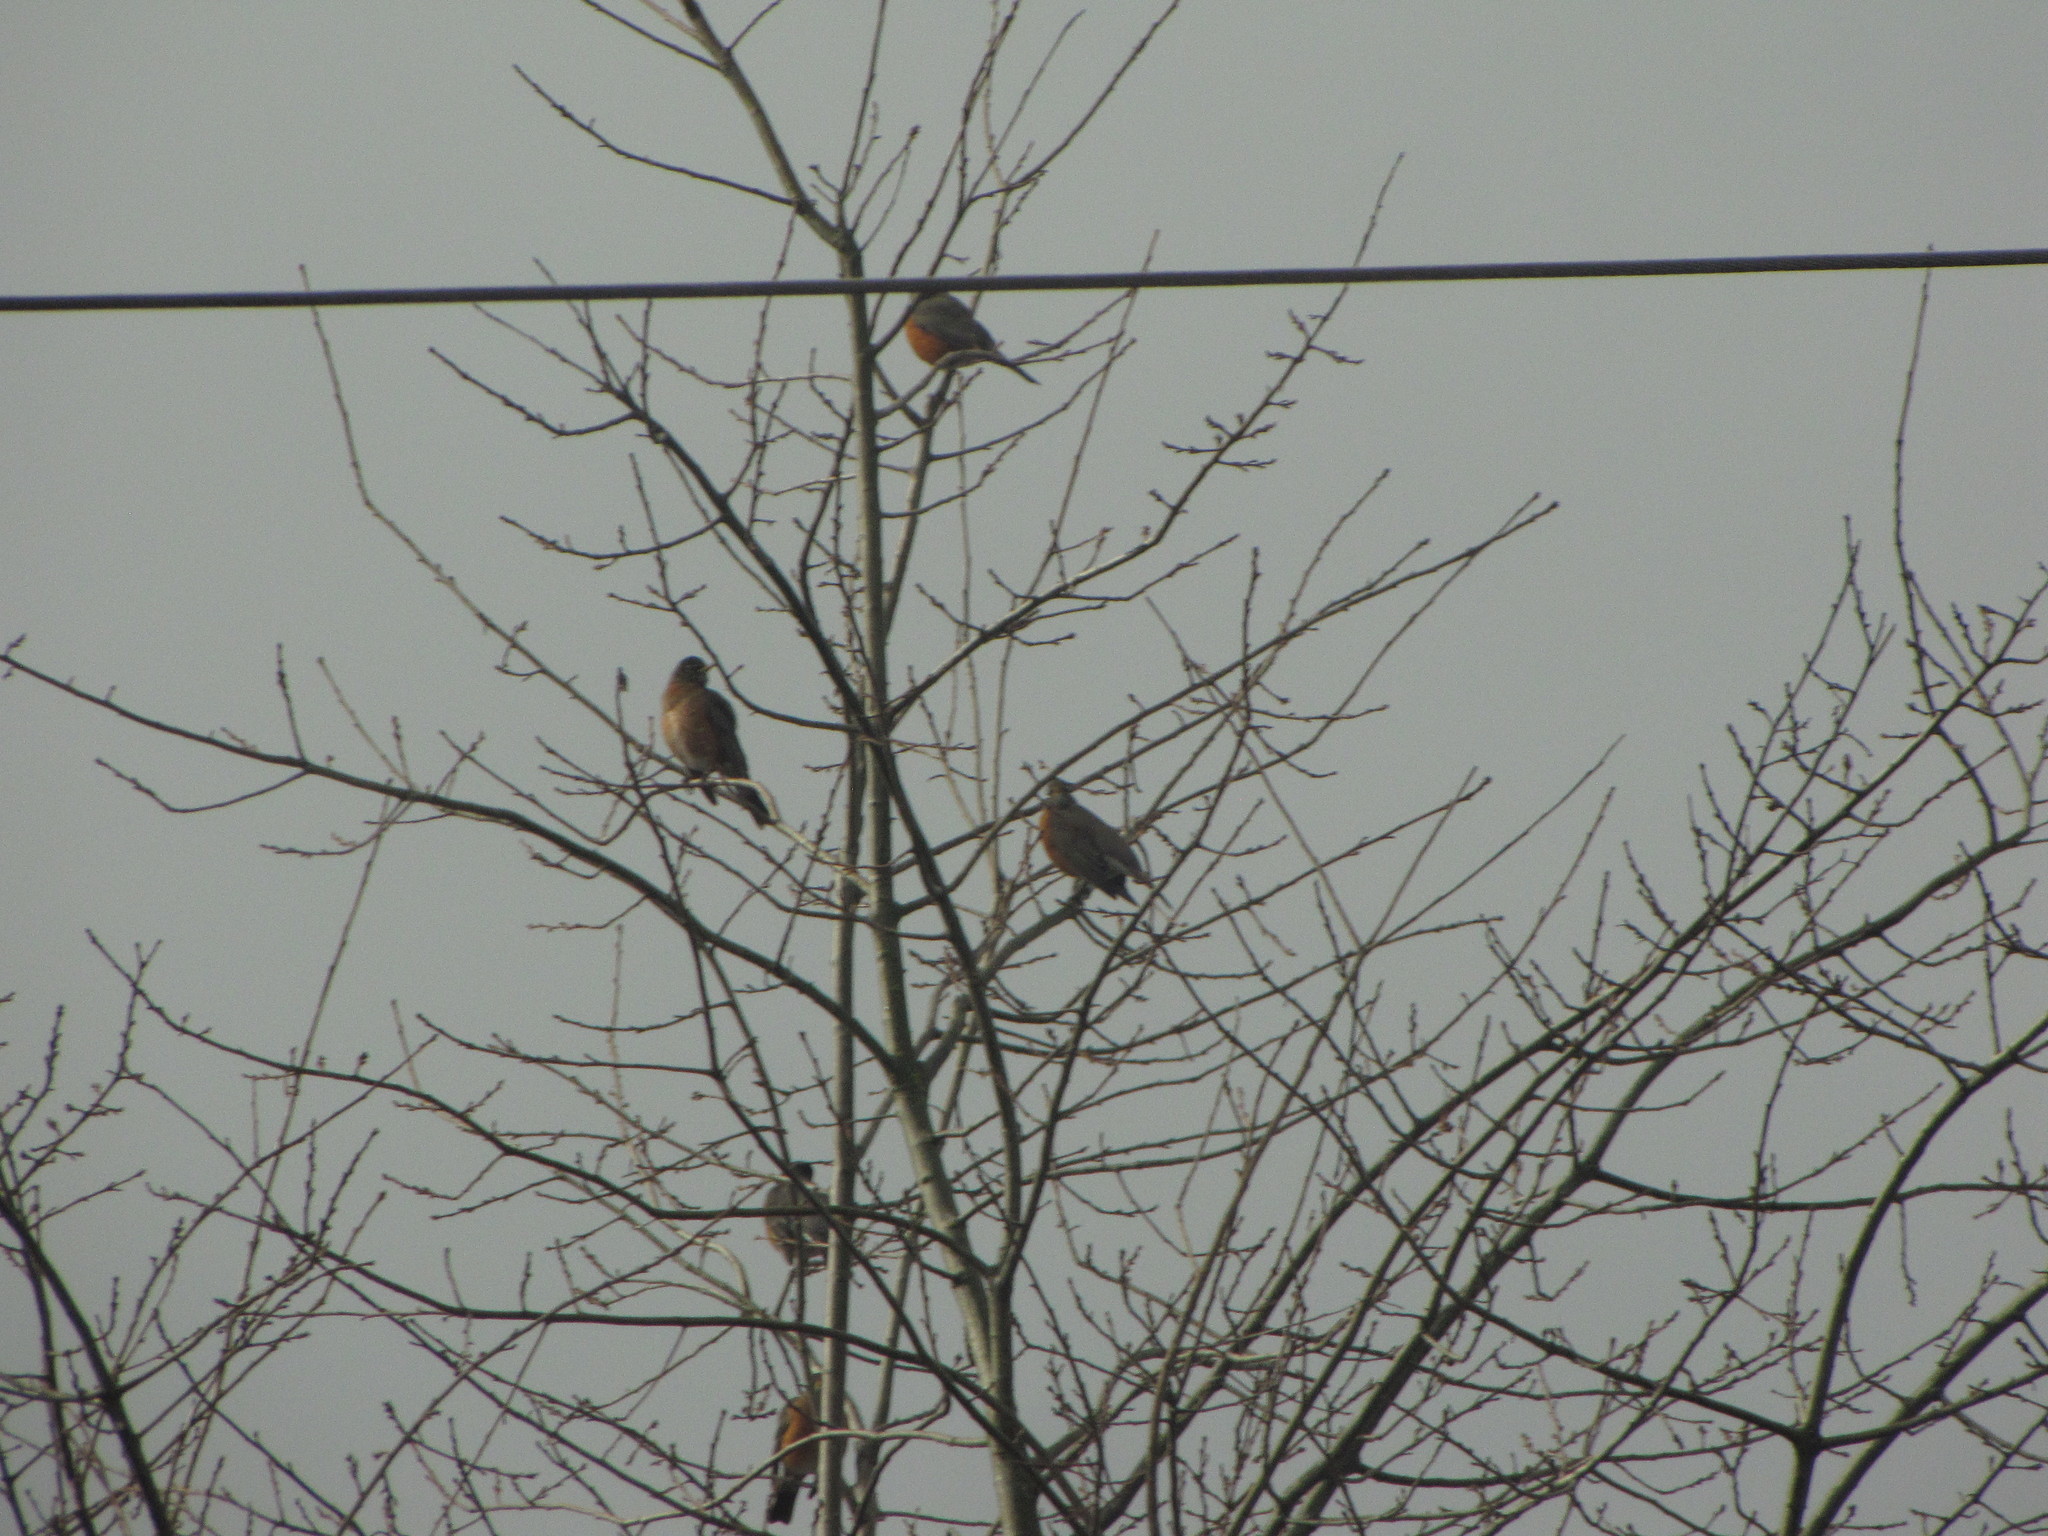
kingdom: Animalia
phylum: Chordata
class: Aves
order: Passeriformes
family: Turdidae
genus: Turdus
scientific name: Turdus migratorius
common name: American robin
